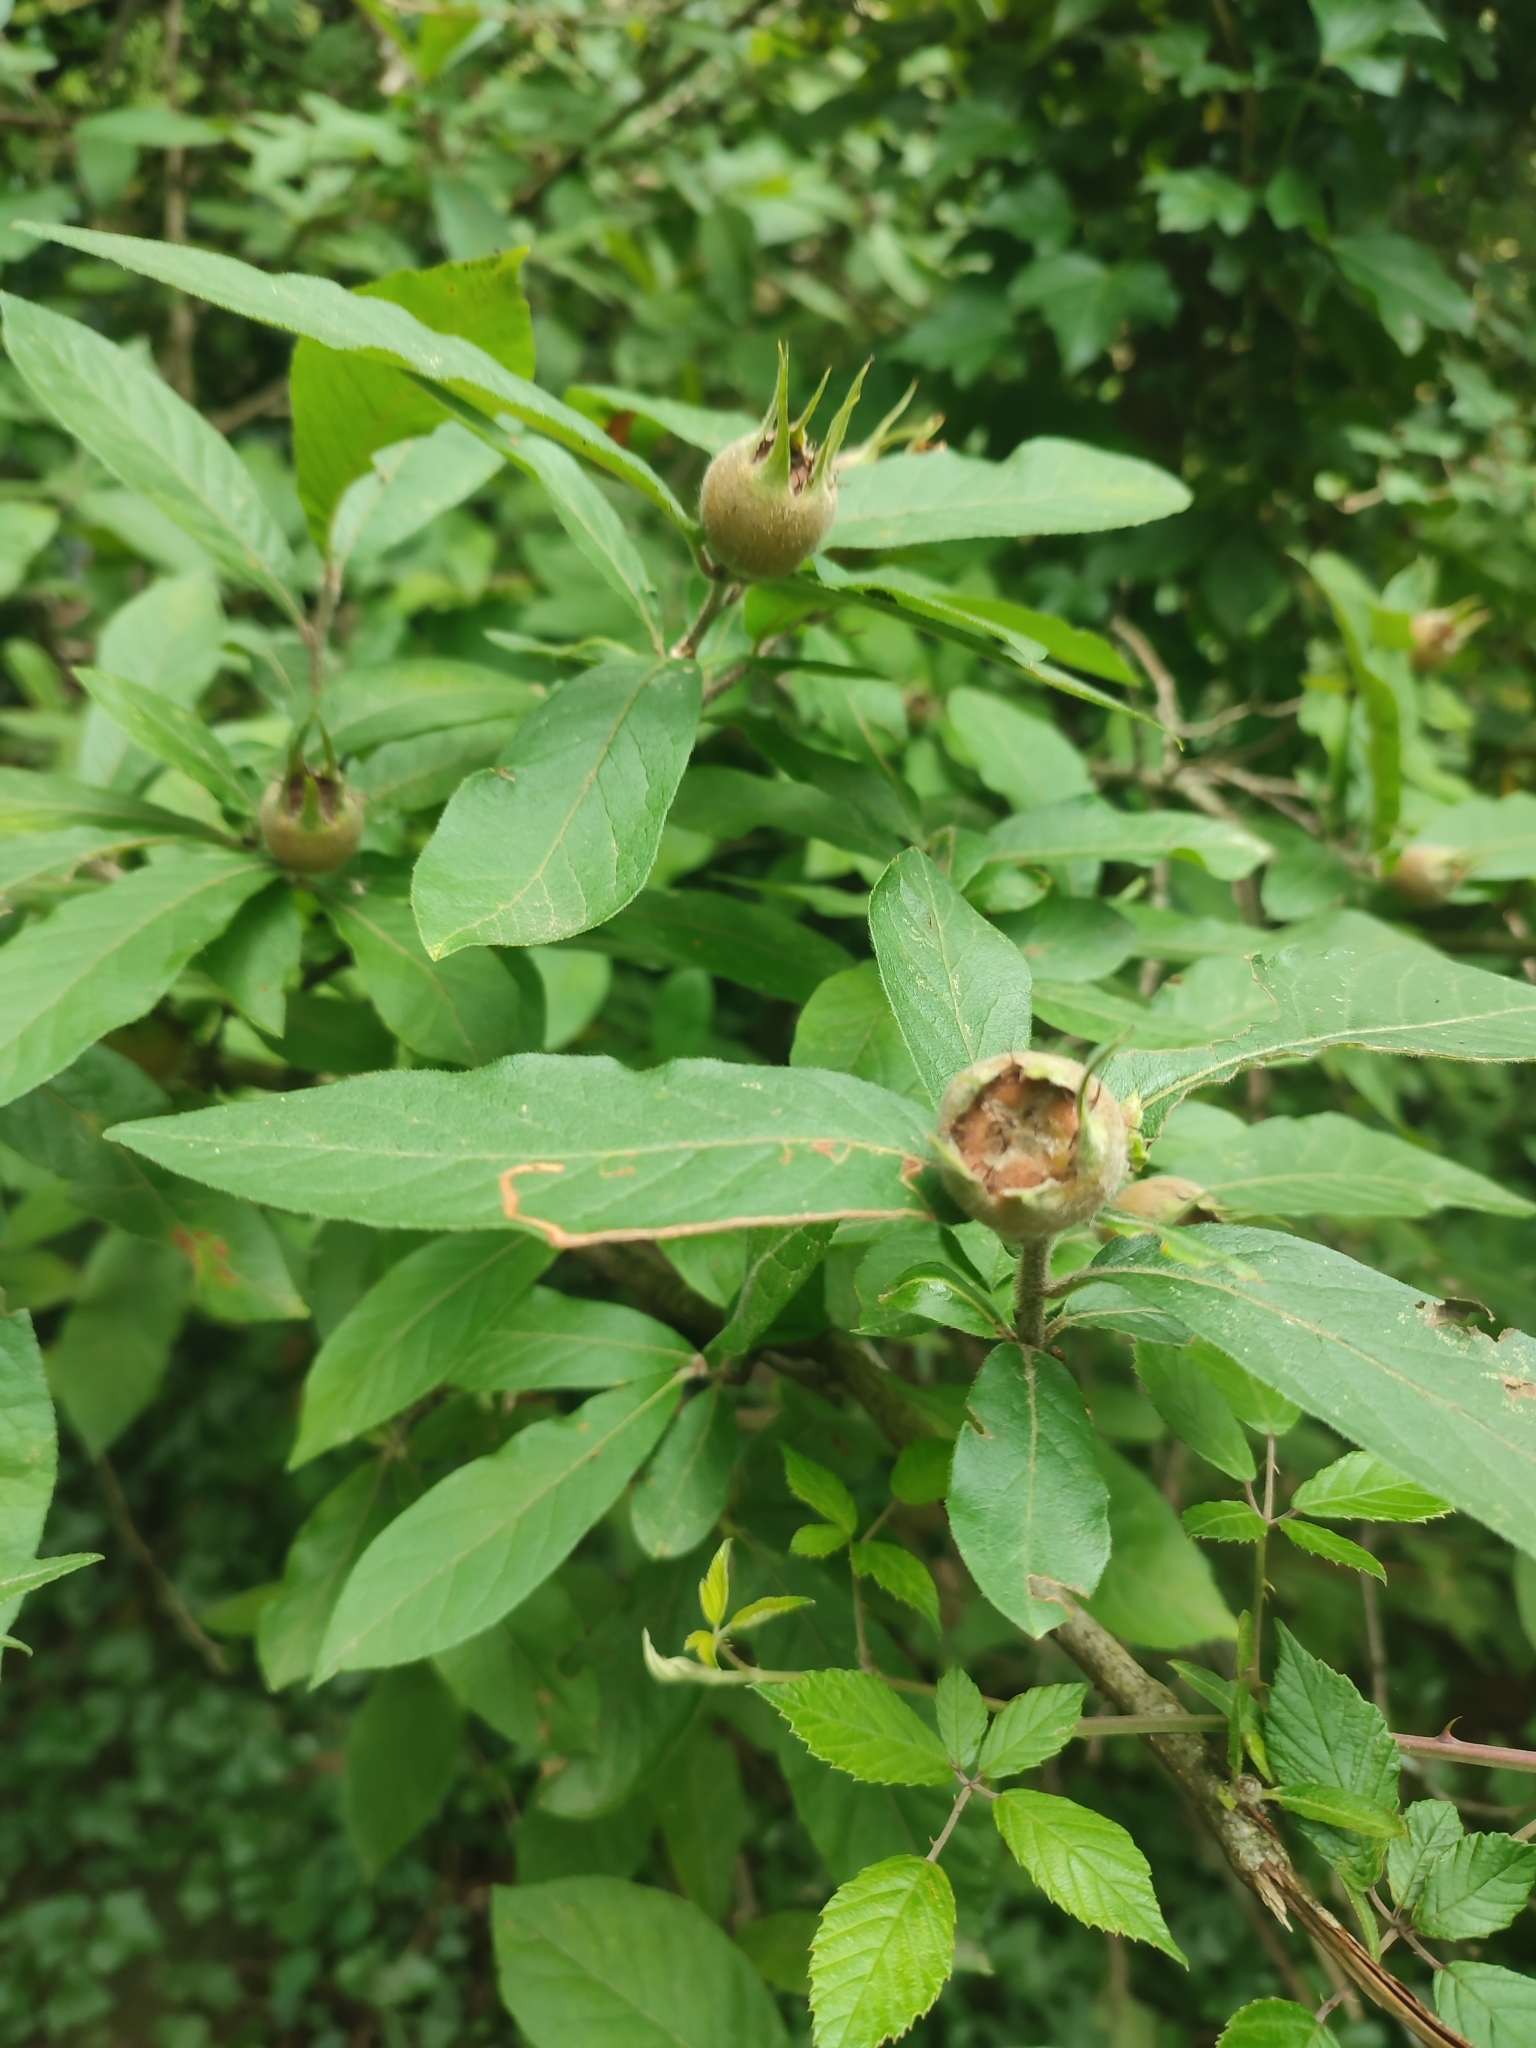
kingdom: Plantae
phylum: Tracheophyta
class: Magnoliopsida
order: Rosales
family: Rosaceae
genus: Mespilus
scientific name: Mespilus germanica
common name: Medlar
